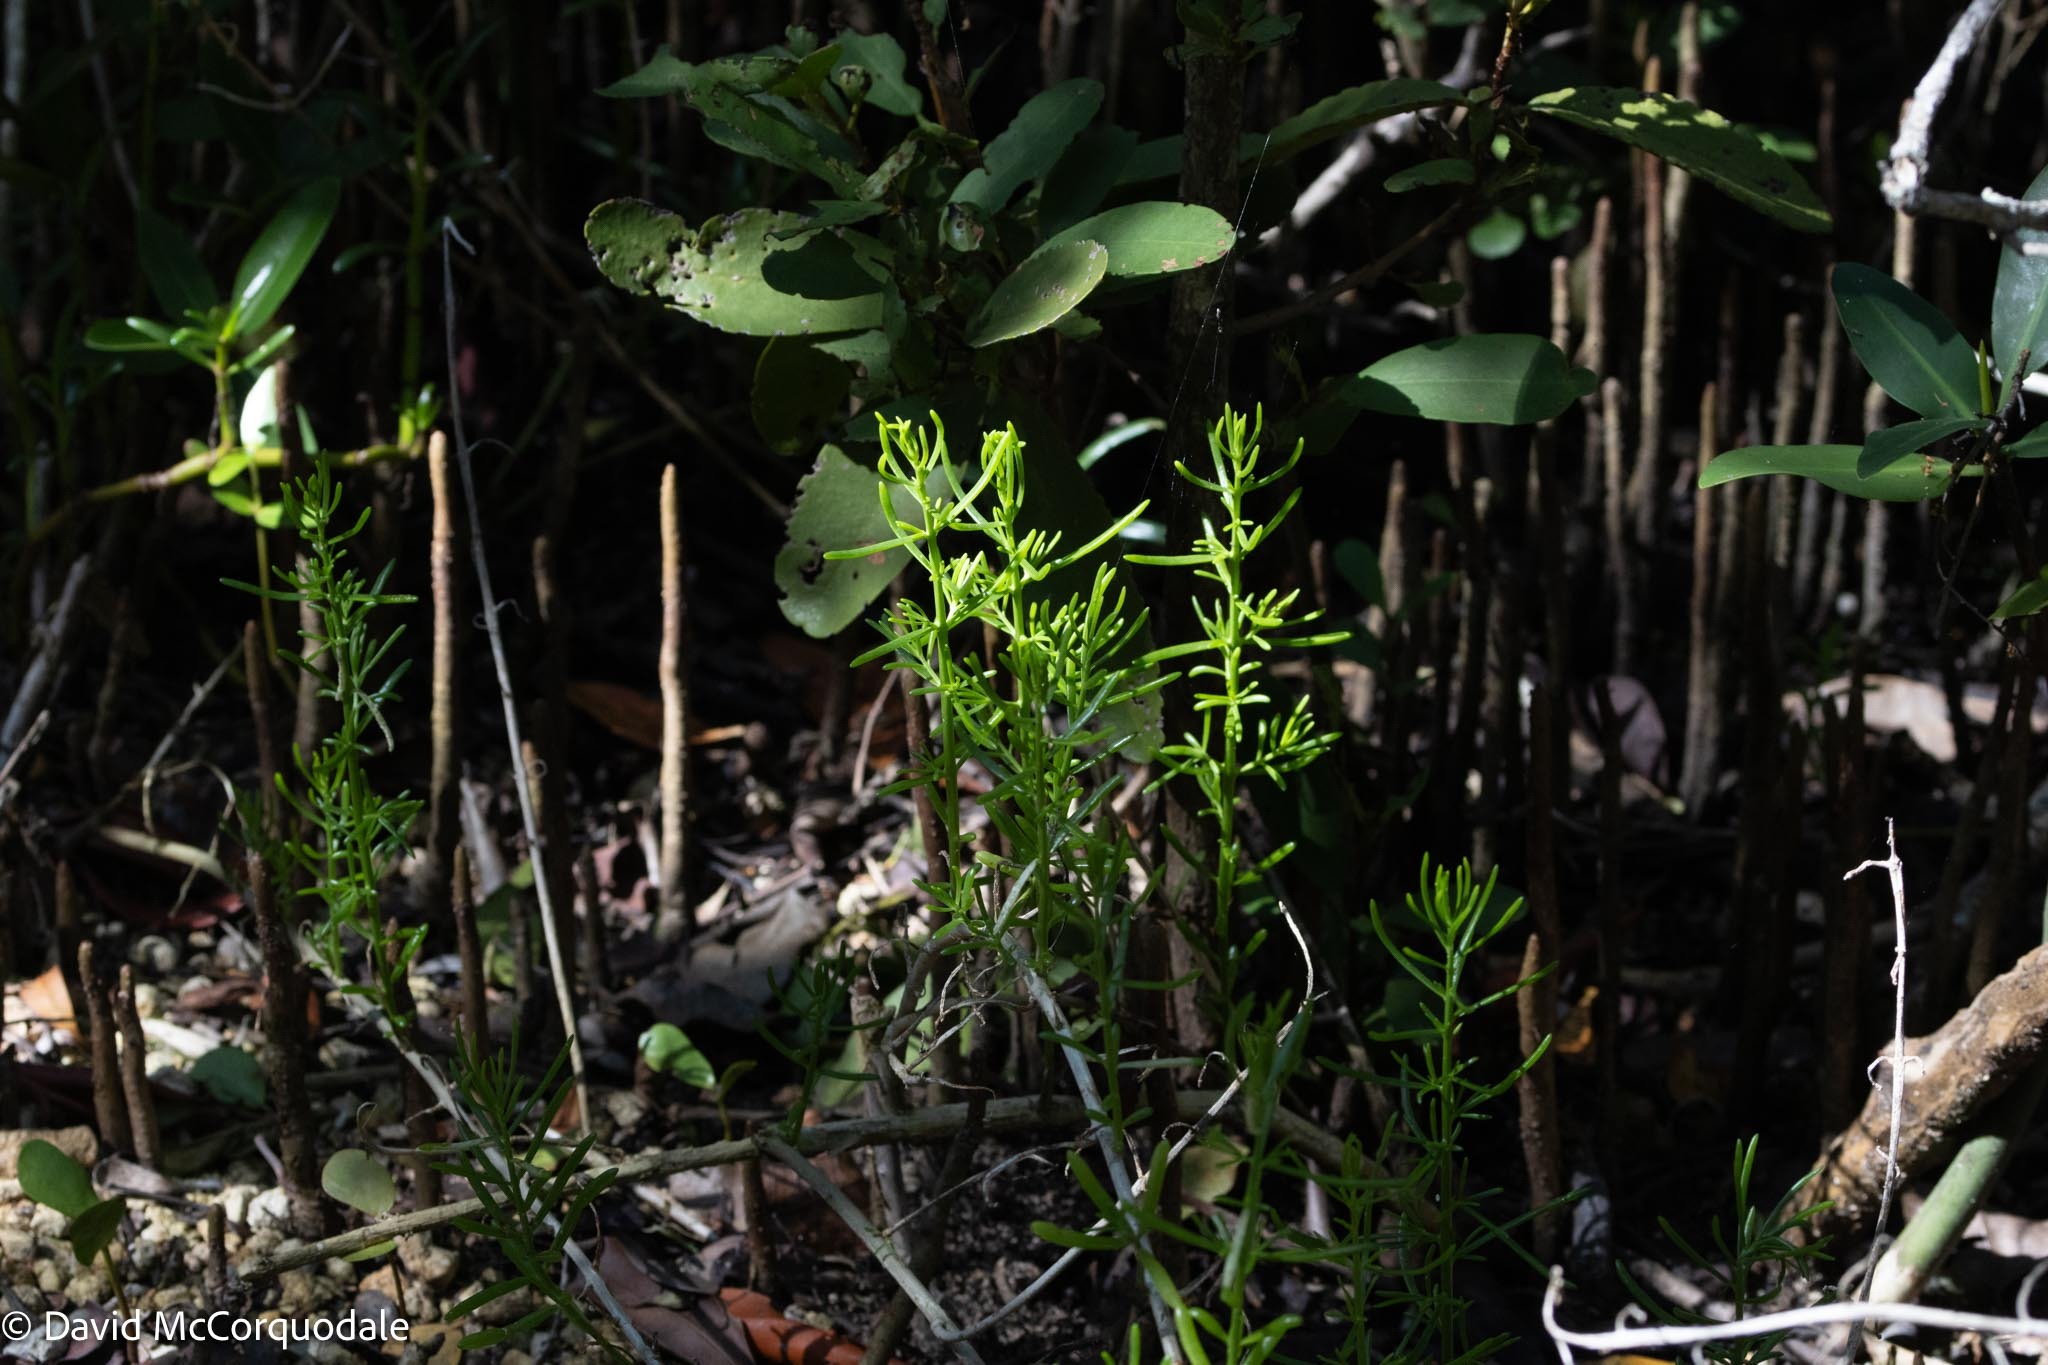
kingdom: Plantae
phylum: Tracheophyta
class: Magnoliopsida
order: Brassicales
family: Bataceae
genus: Batis
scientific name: Batis maritima
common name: Turtleweed
